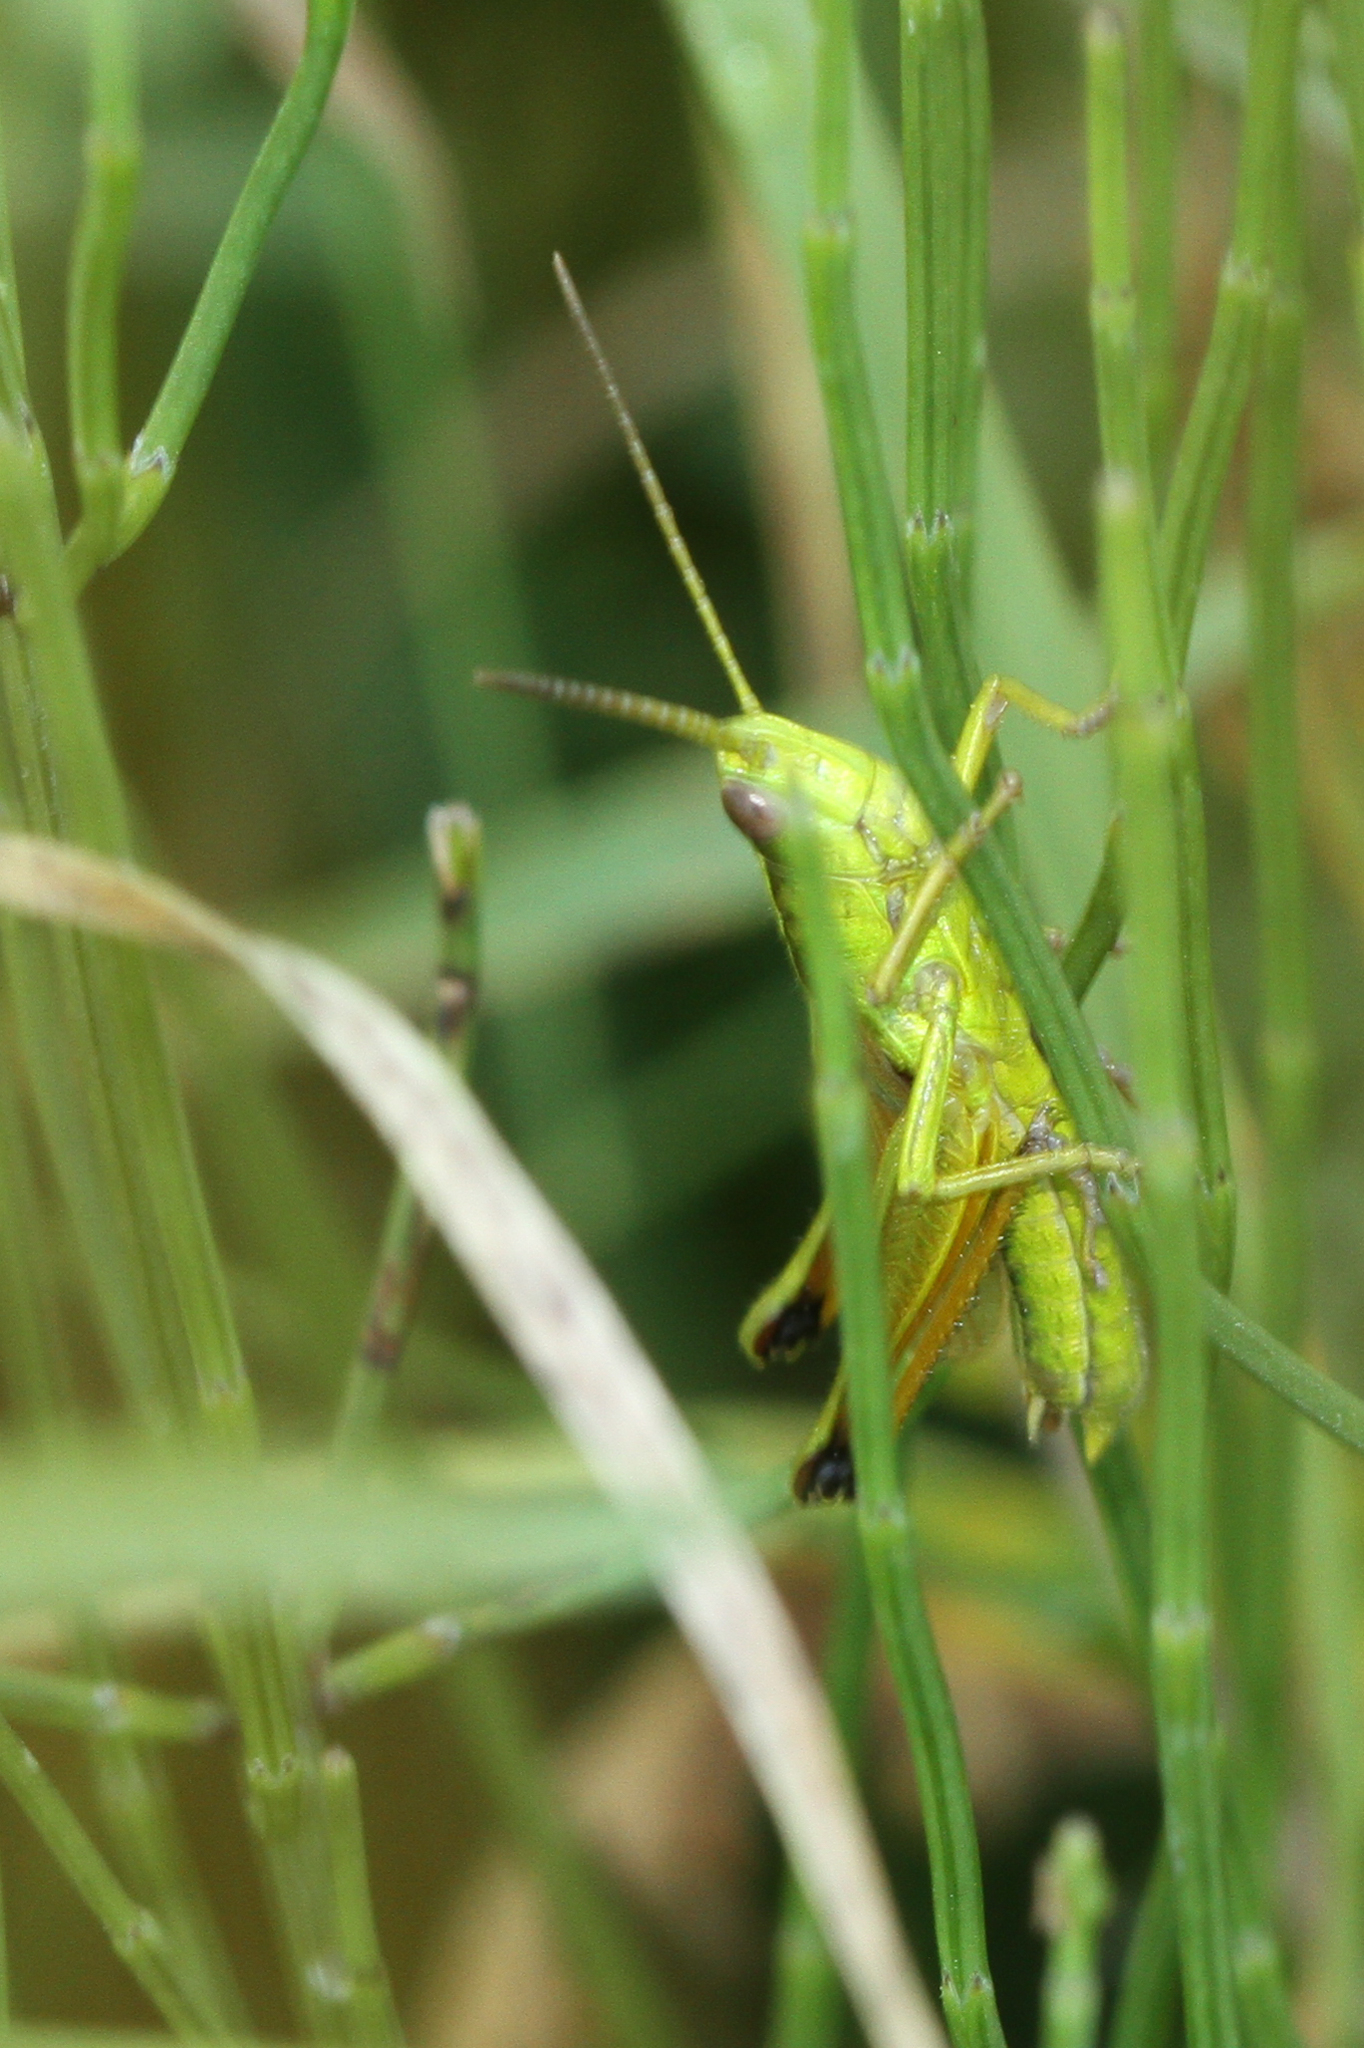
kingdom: Animalia
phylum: Arthropoda
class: Insecta
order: Orthoptera
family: Acrididae
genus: Chrysochraon
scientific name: Chrysochraon dispar
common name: Large gold grasshopper
